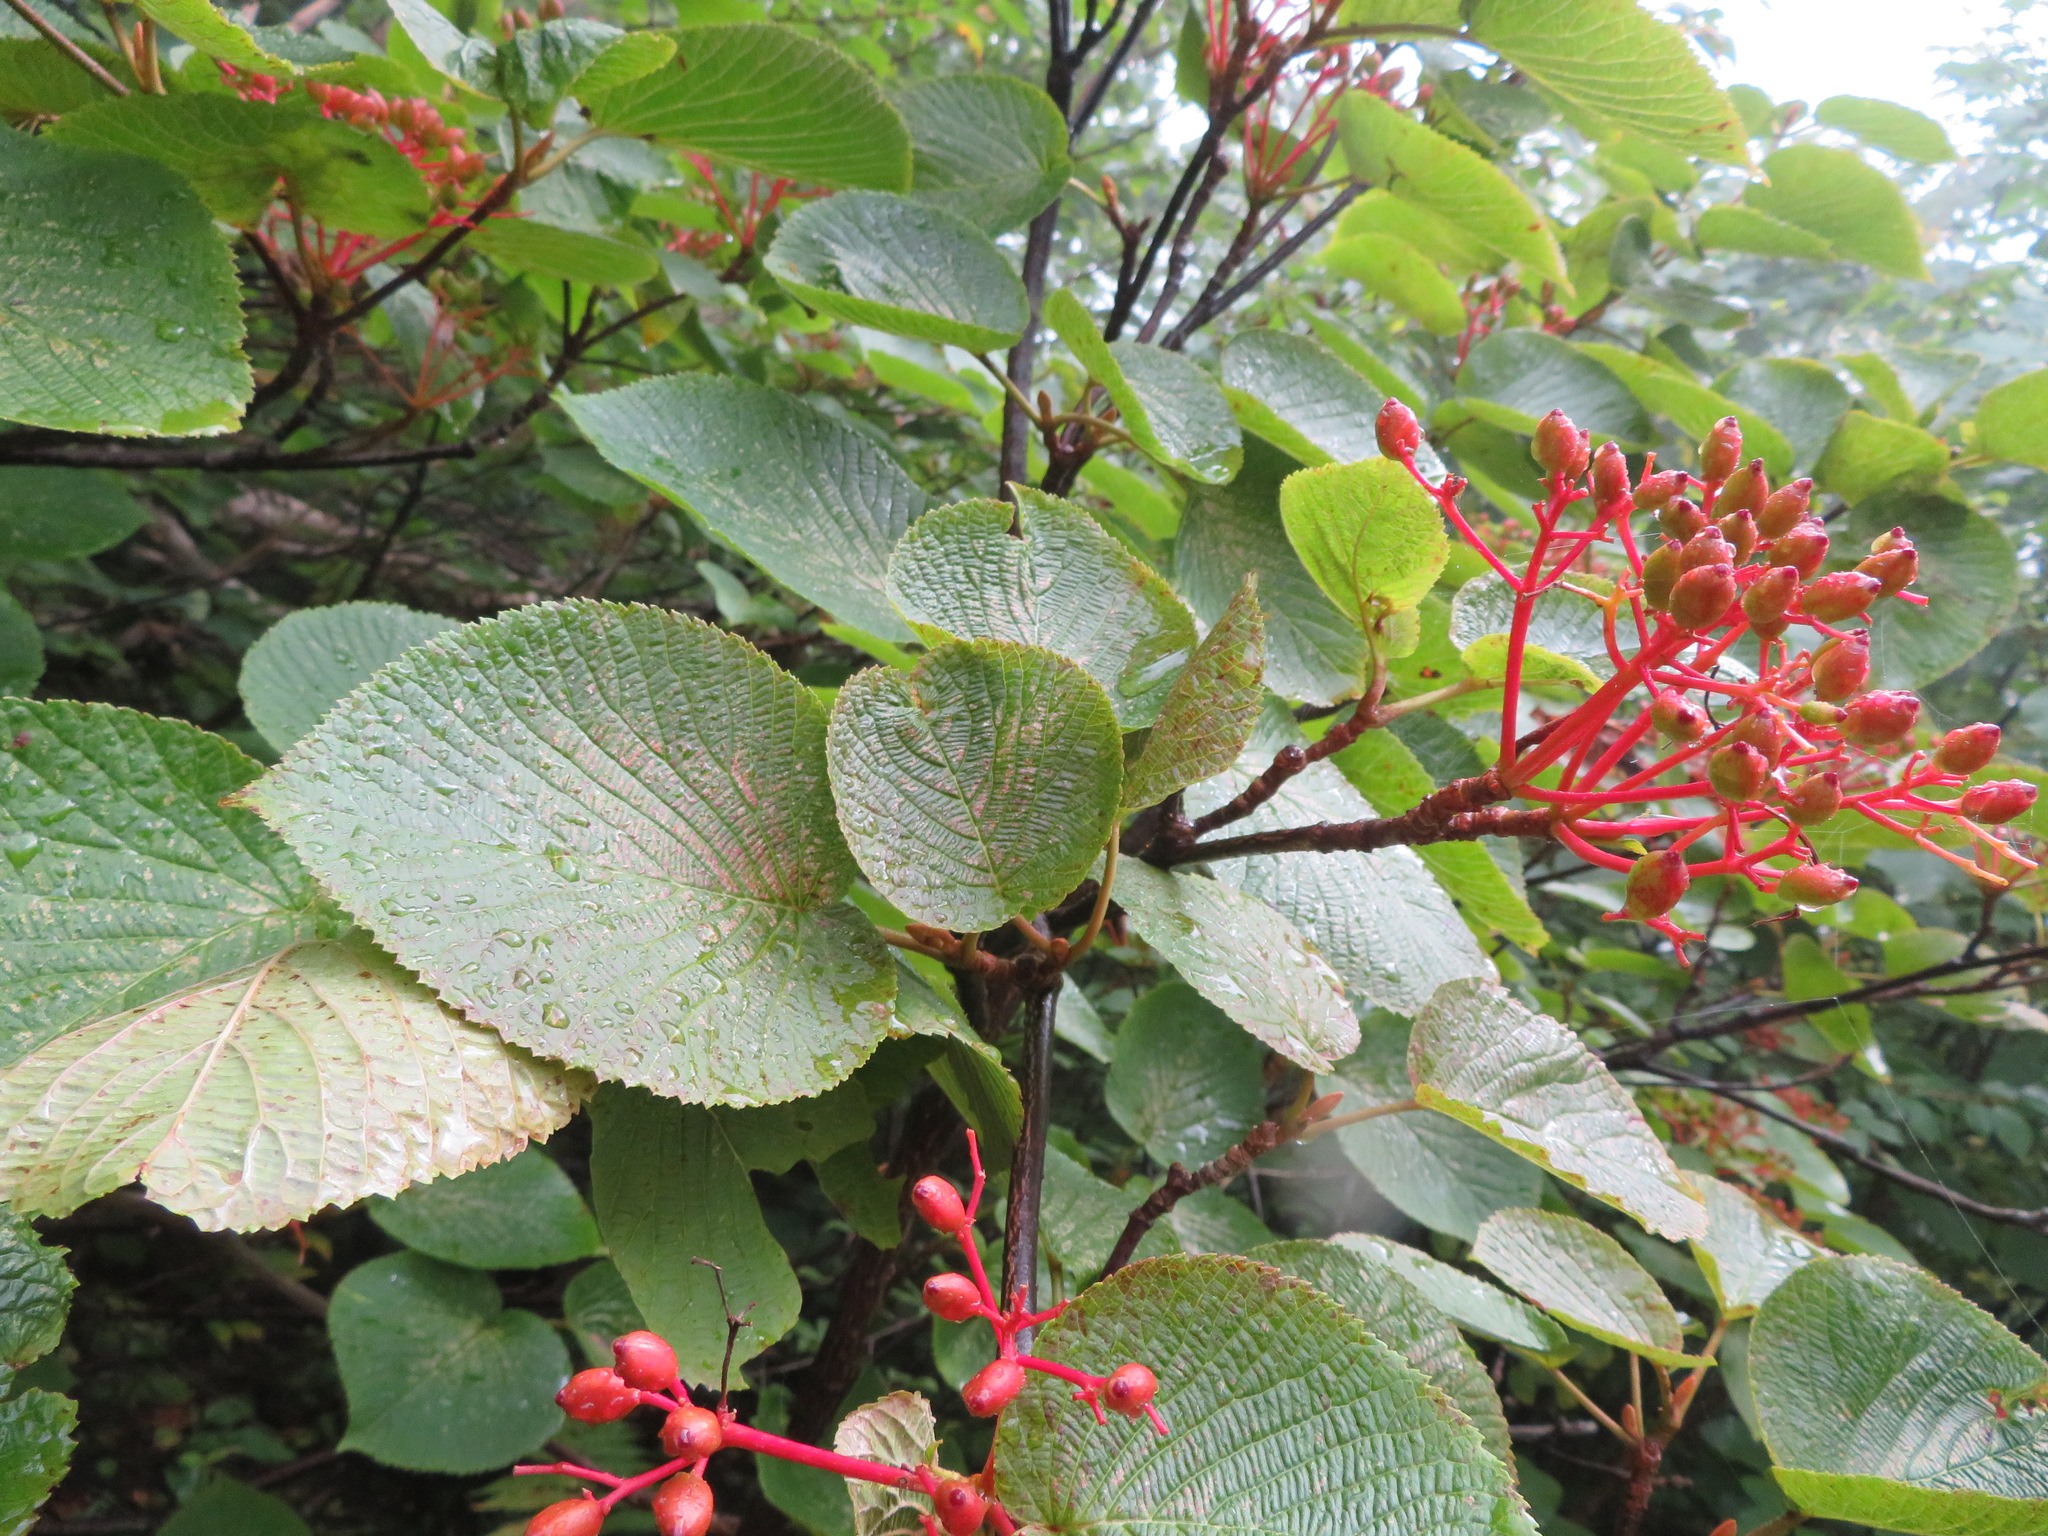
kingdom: Plantae
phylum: Tracheophyta
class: Magnoliopsida
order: Dipsacales
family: Viburnaceae
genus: Viburnum
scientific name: Viburnum furcatum
